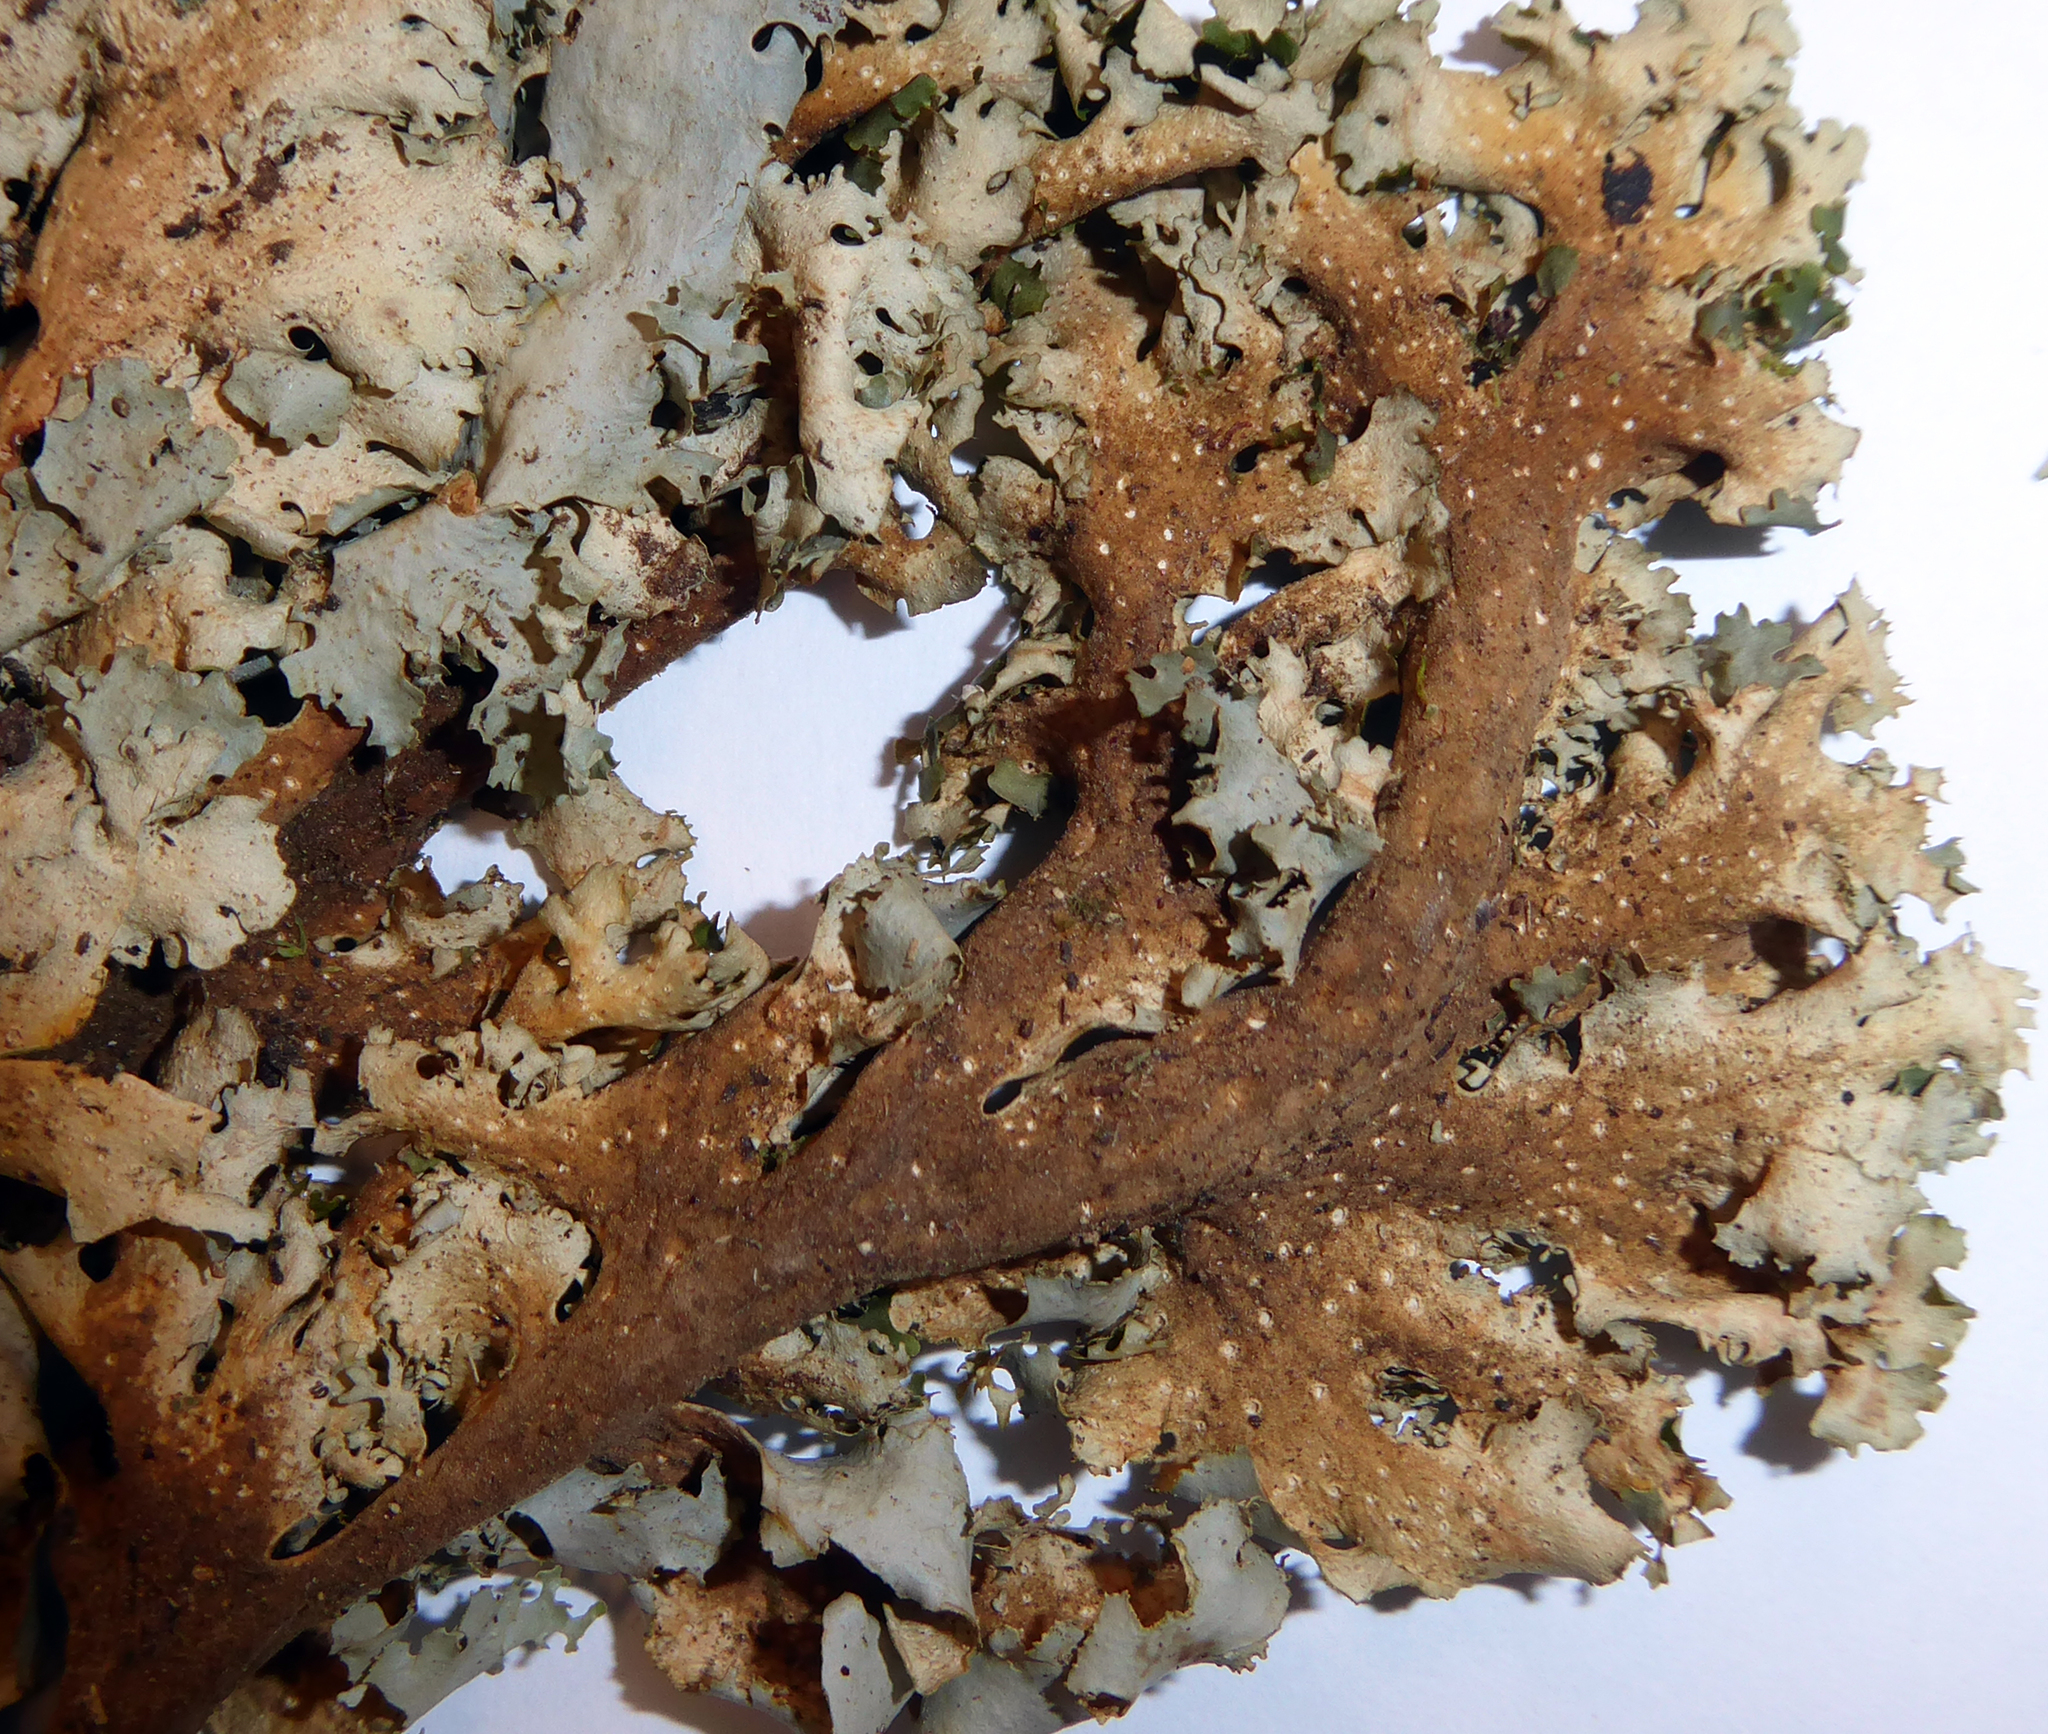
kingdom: Fungi
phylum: Ascomycota
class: Lecanoromycetes
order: Peltigerales
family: Lobariaceae
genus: Sticta
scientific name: Sticta filix
